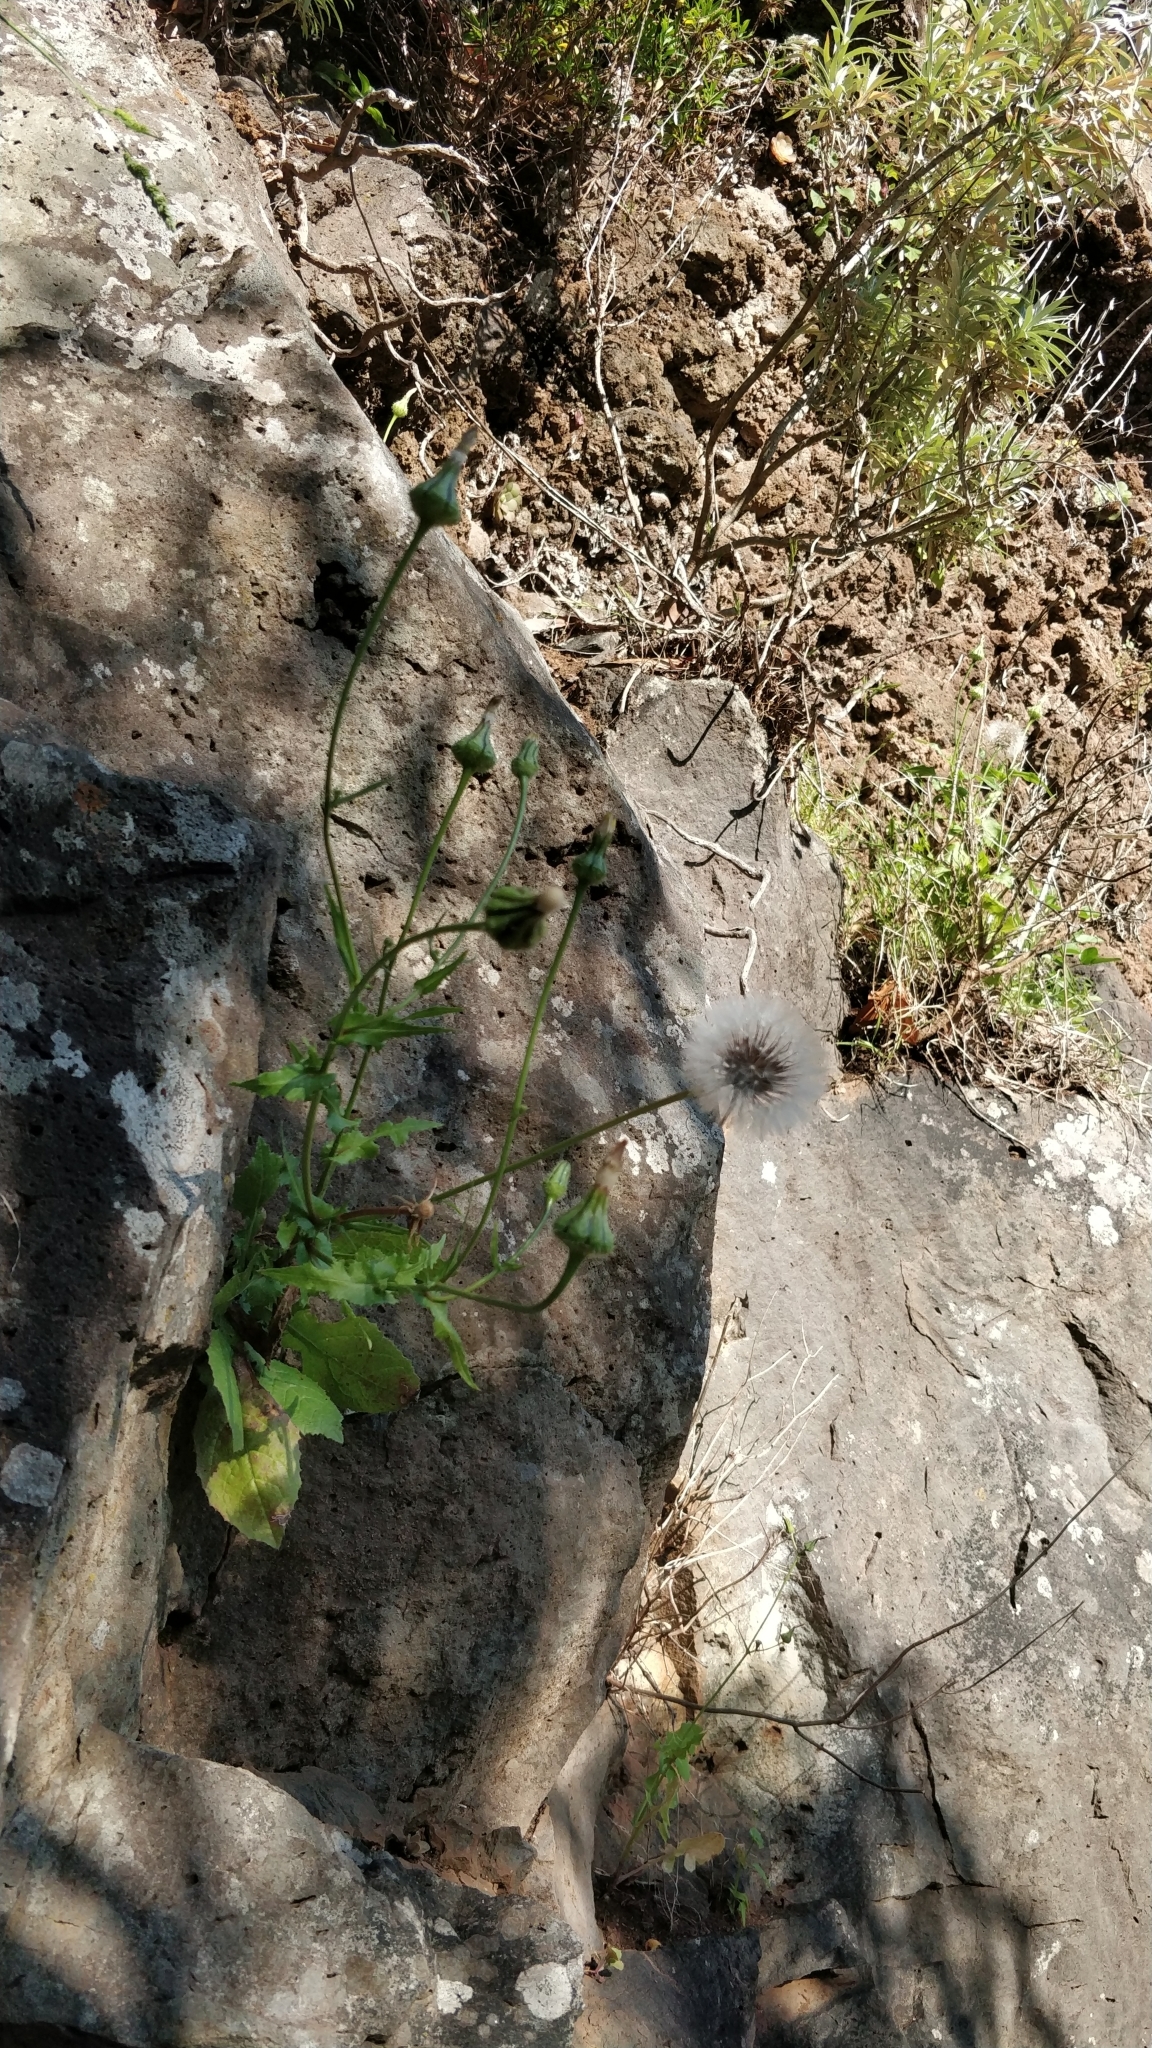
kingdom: Plantae
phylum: Tracheophyta
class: Magnoliopsida
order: Asterales
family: Asteraceae
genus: Urospermum
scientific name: Urospermum picroides
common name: False hawkbit
